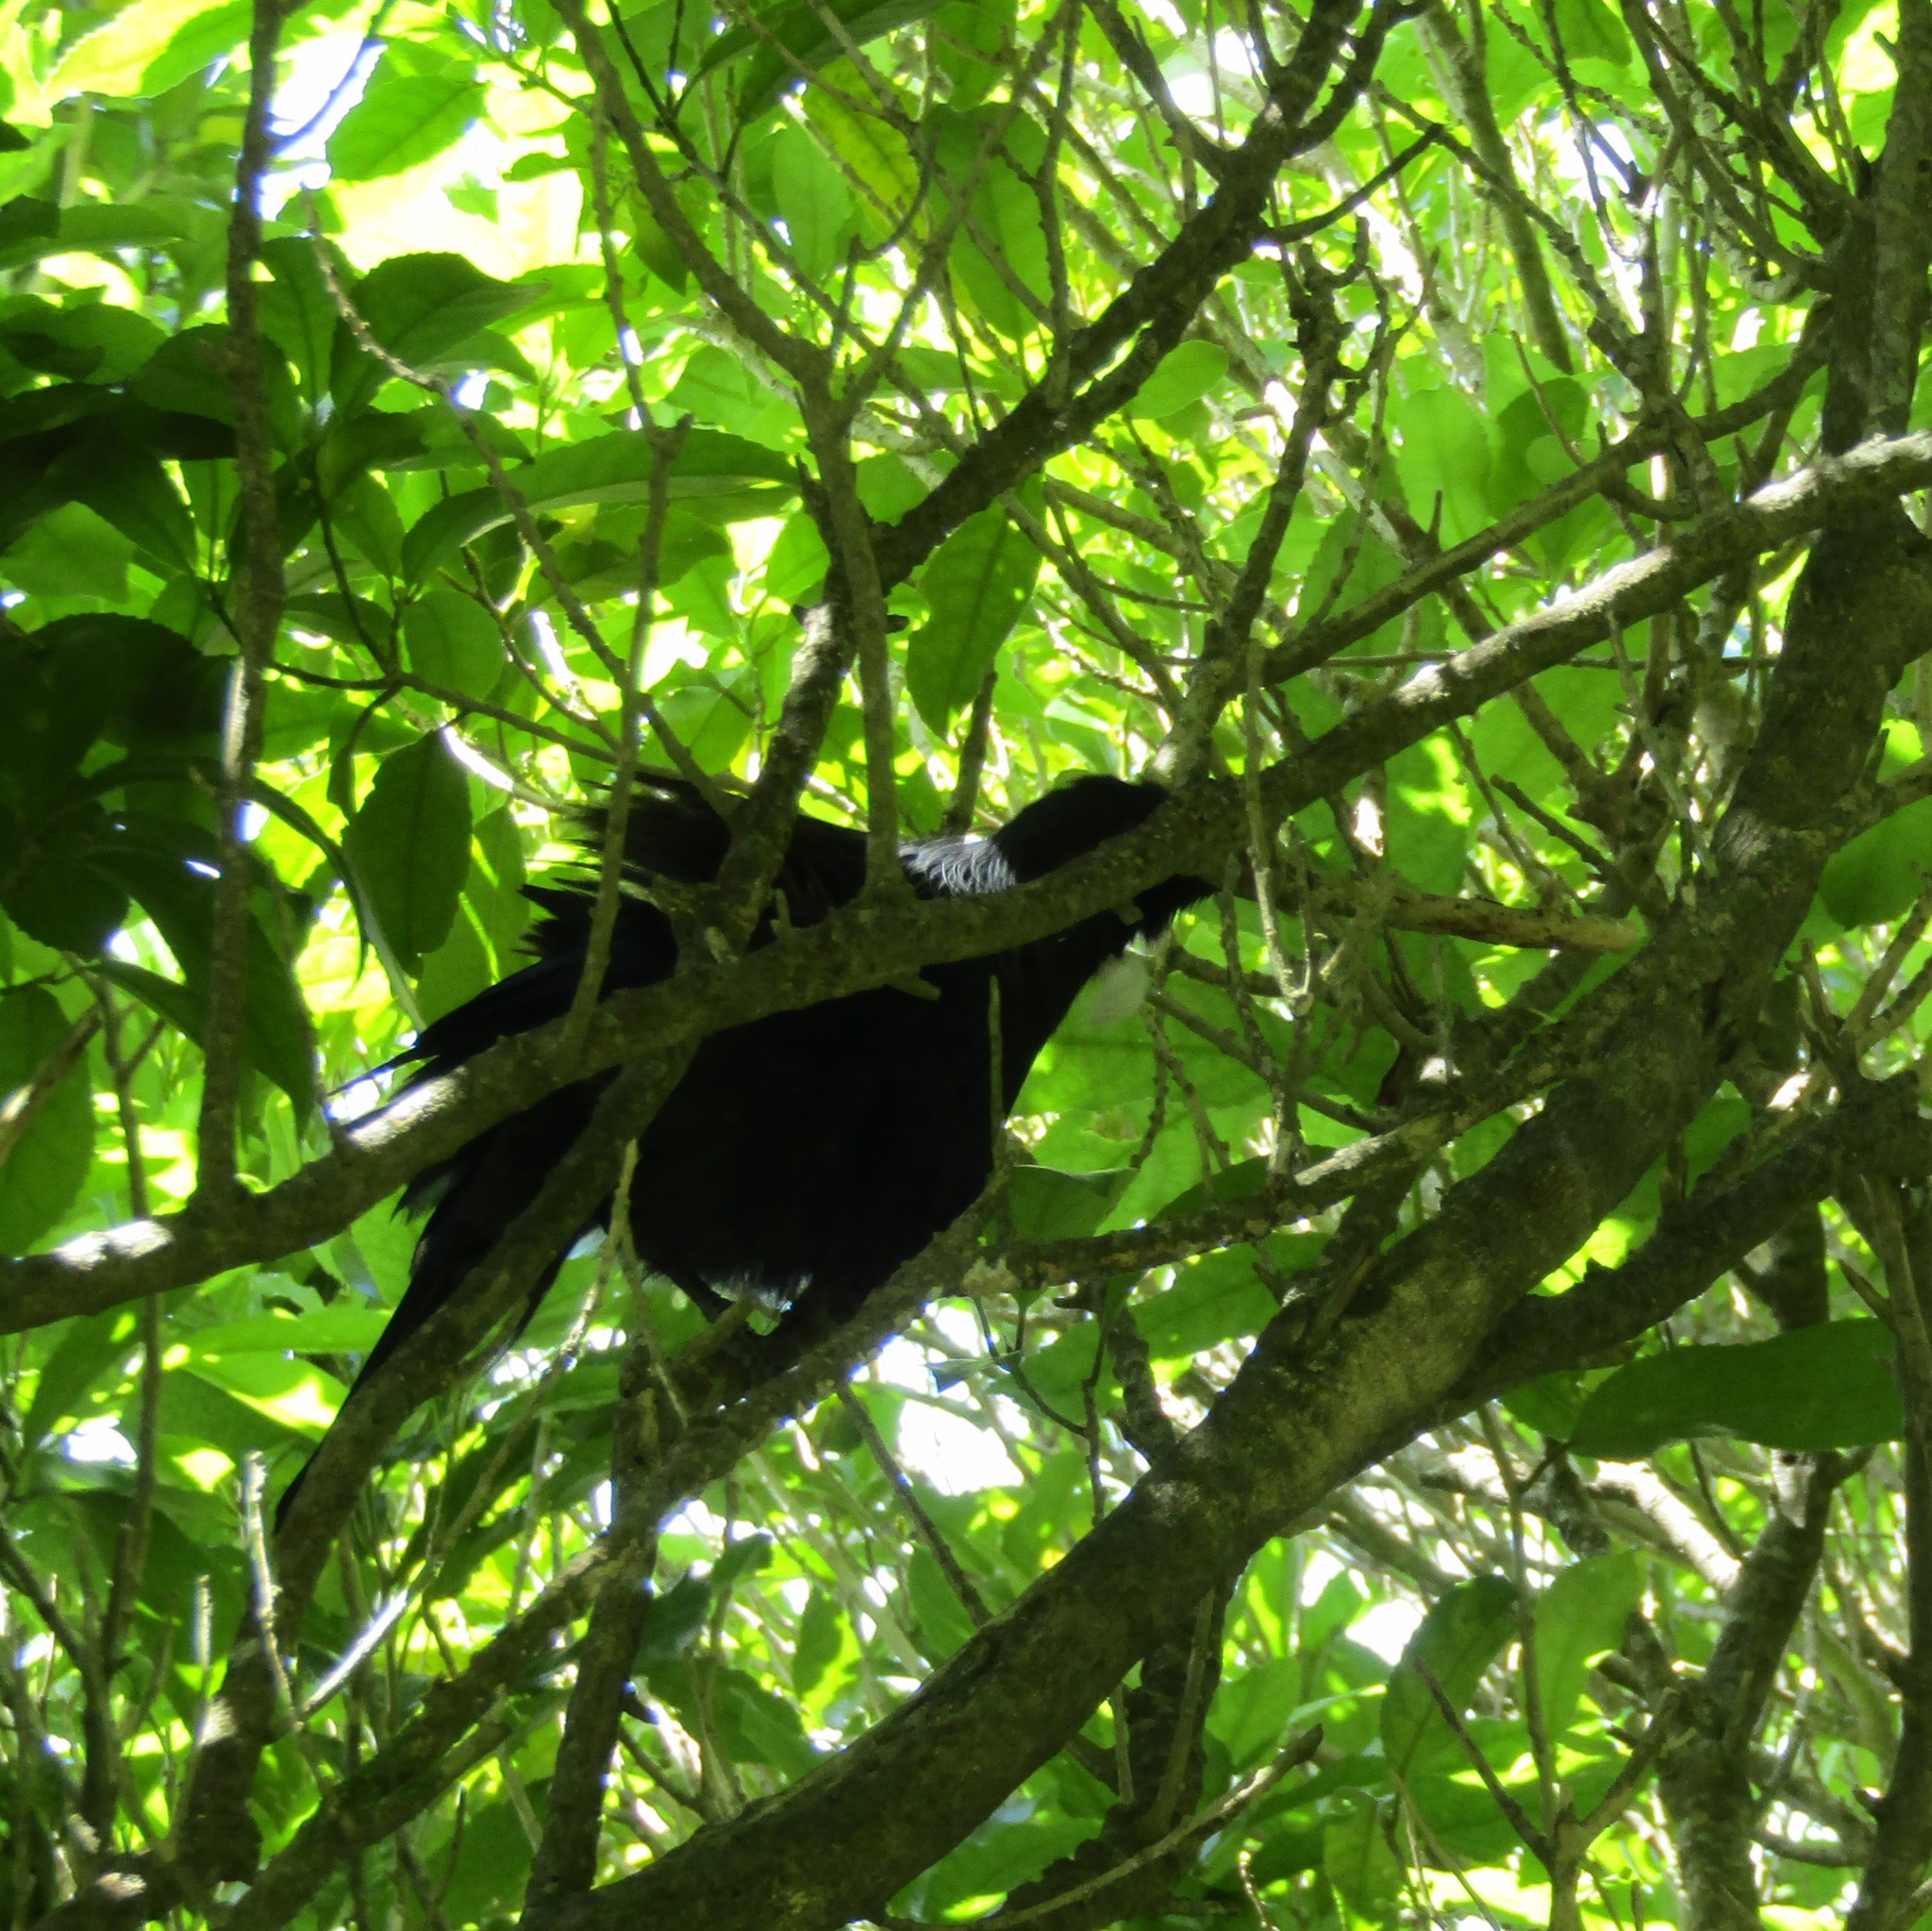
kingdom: Animalia
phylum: Chordata
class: Aves
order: Passeriformes
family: Meliphagidae
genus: Prosthemadera
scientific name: Prosthemadera novaeseelandiae
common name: Tui
